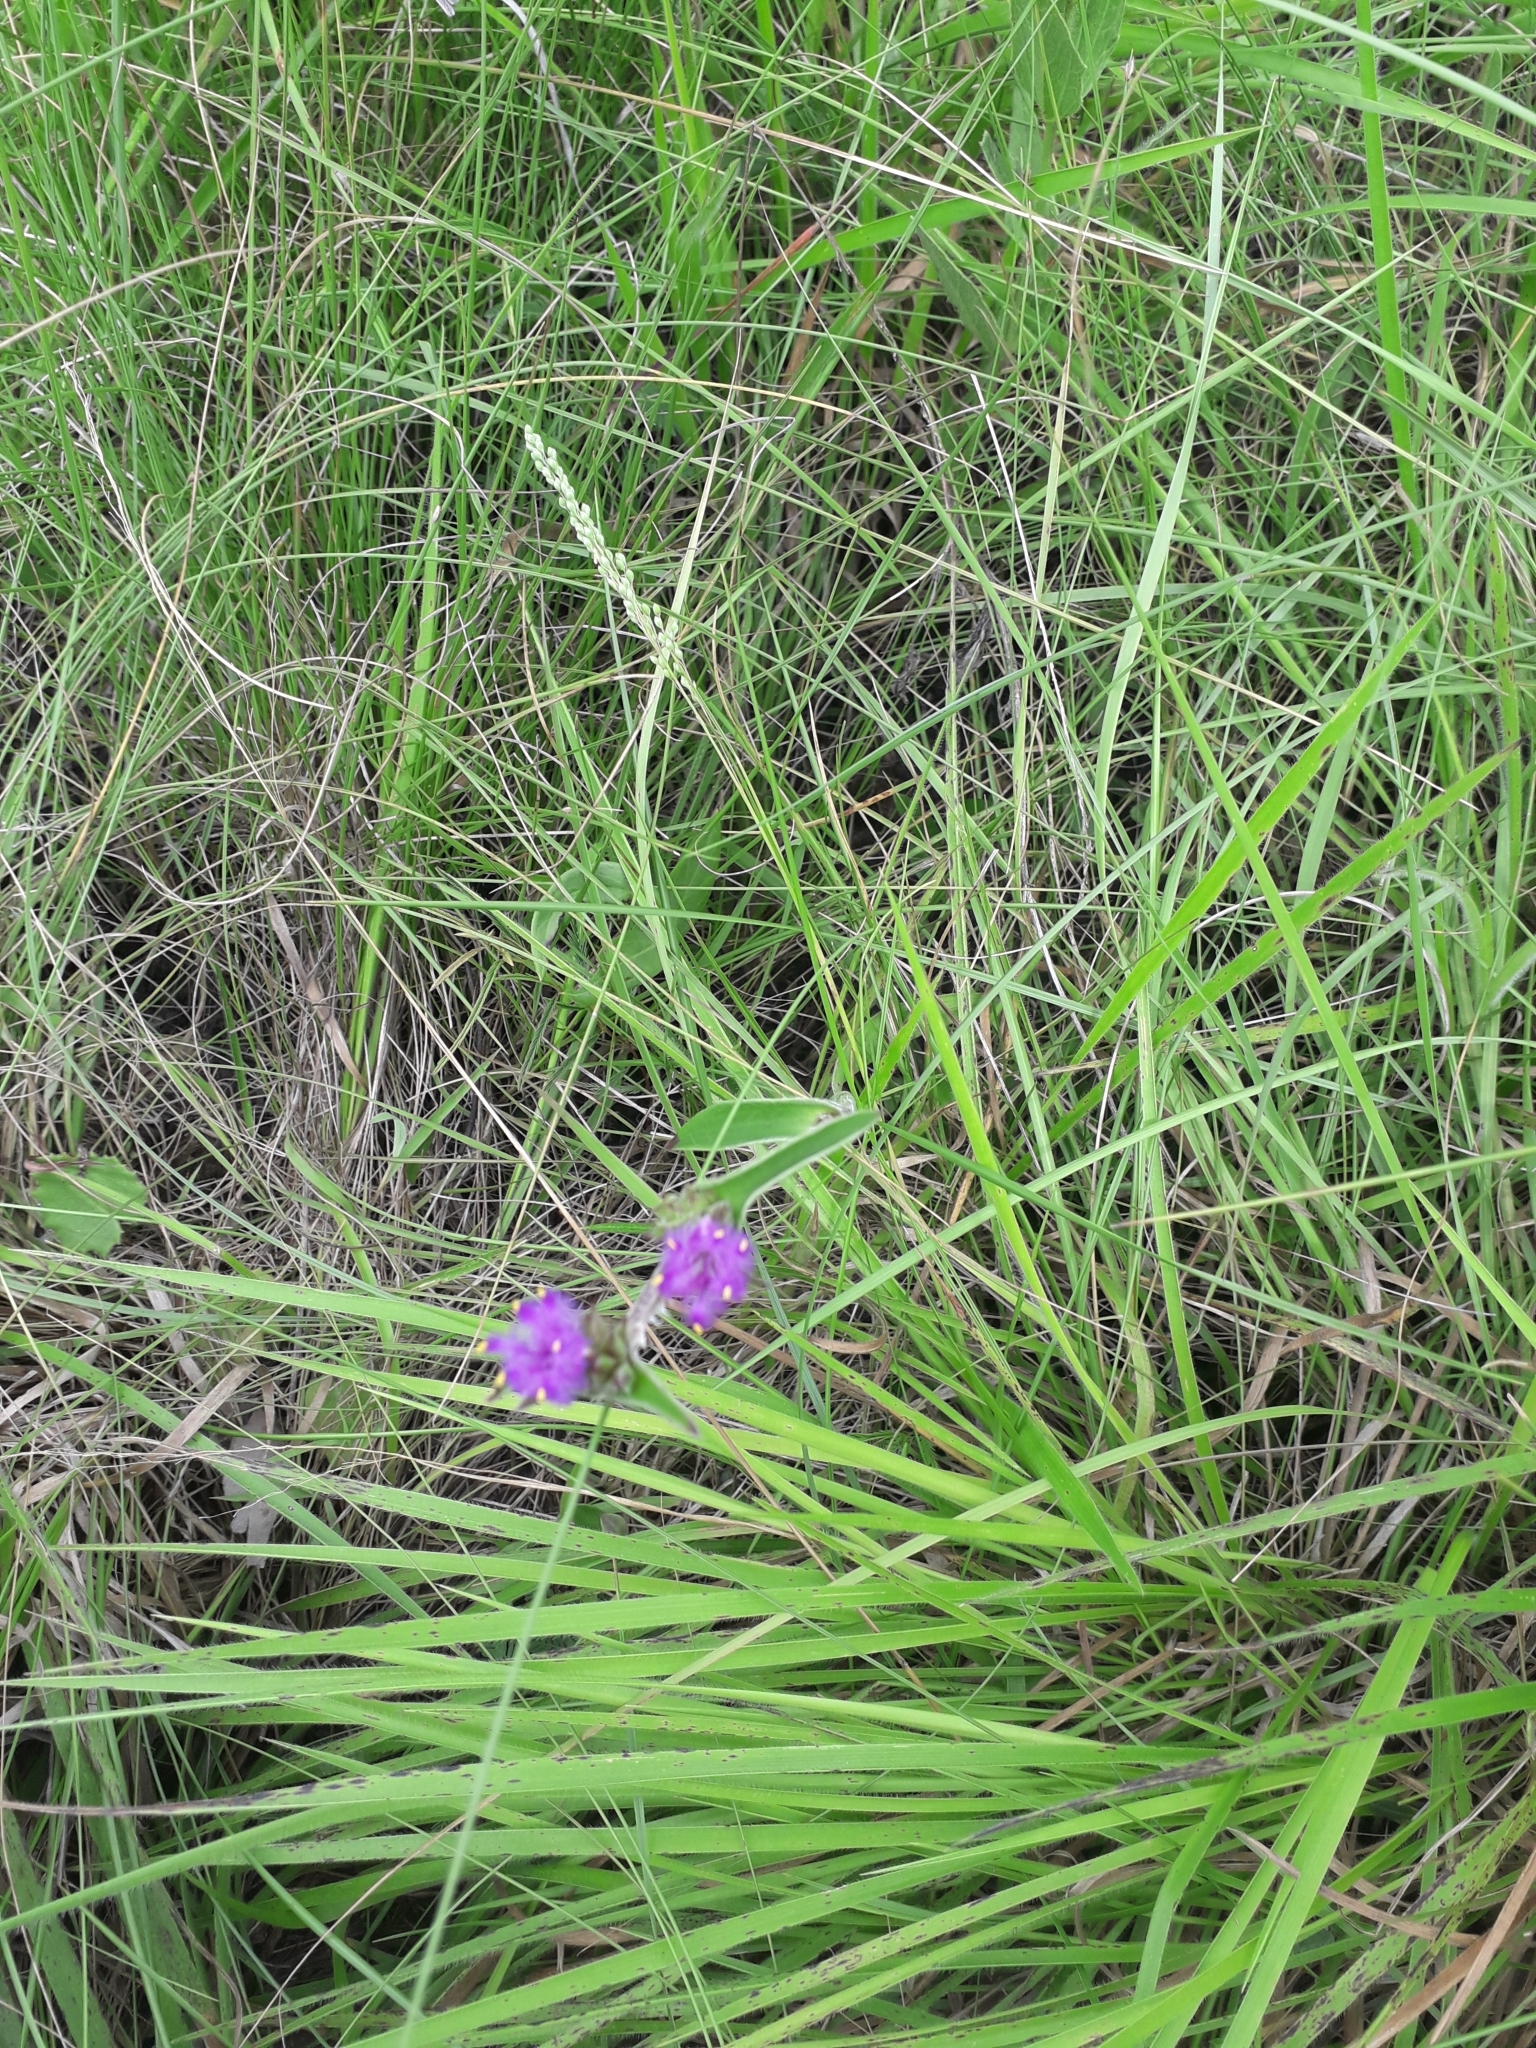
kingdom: Plantae
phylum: Tracheophyta
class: Liliopsida
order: Commelinales
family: Commelinaceae
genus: Cyanotis
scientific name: Cyanotis speciosa
